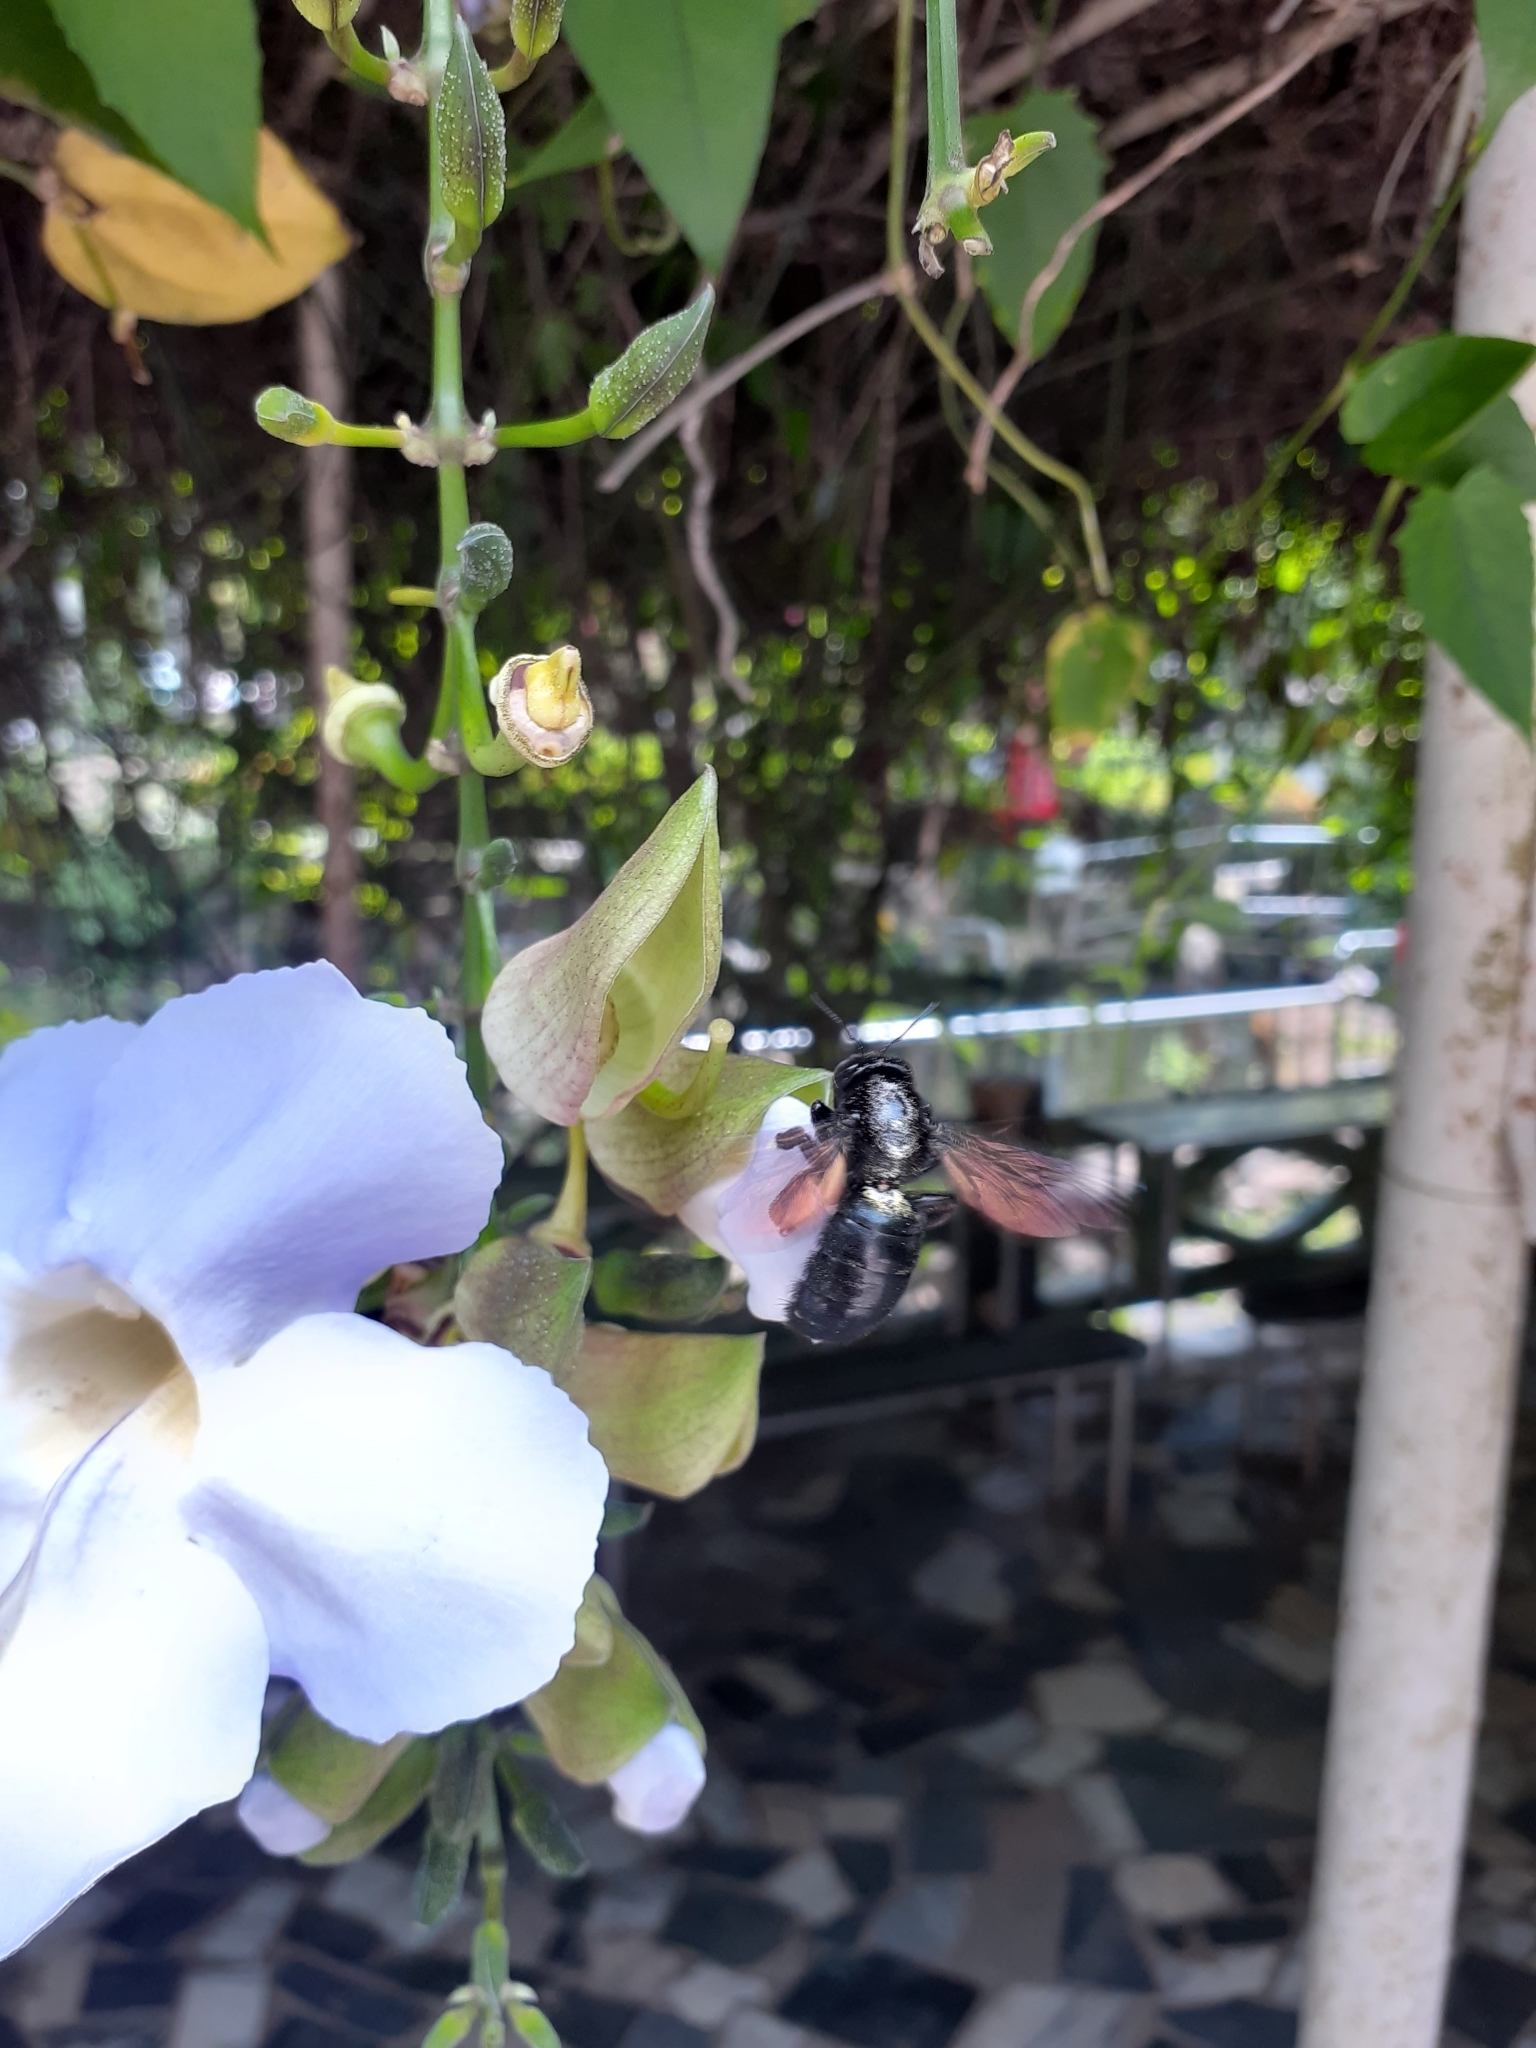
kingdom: Animalia
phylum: Arthropoda
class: Insecta
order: Hymenoptera
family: Apidae
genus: Xylocopa
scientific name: Xylocopa tranquebarorum
